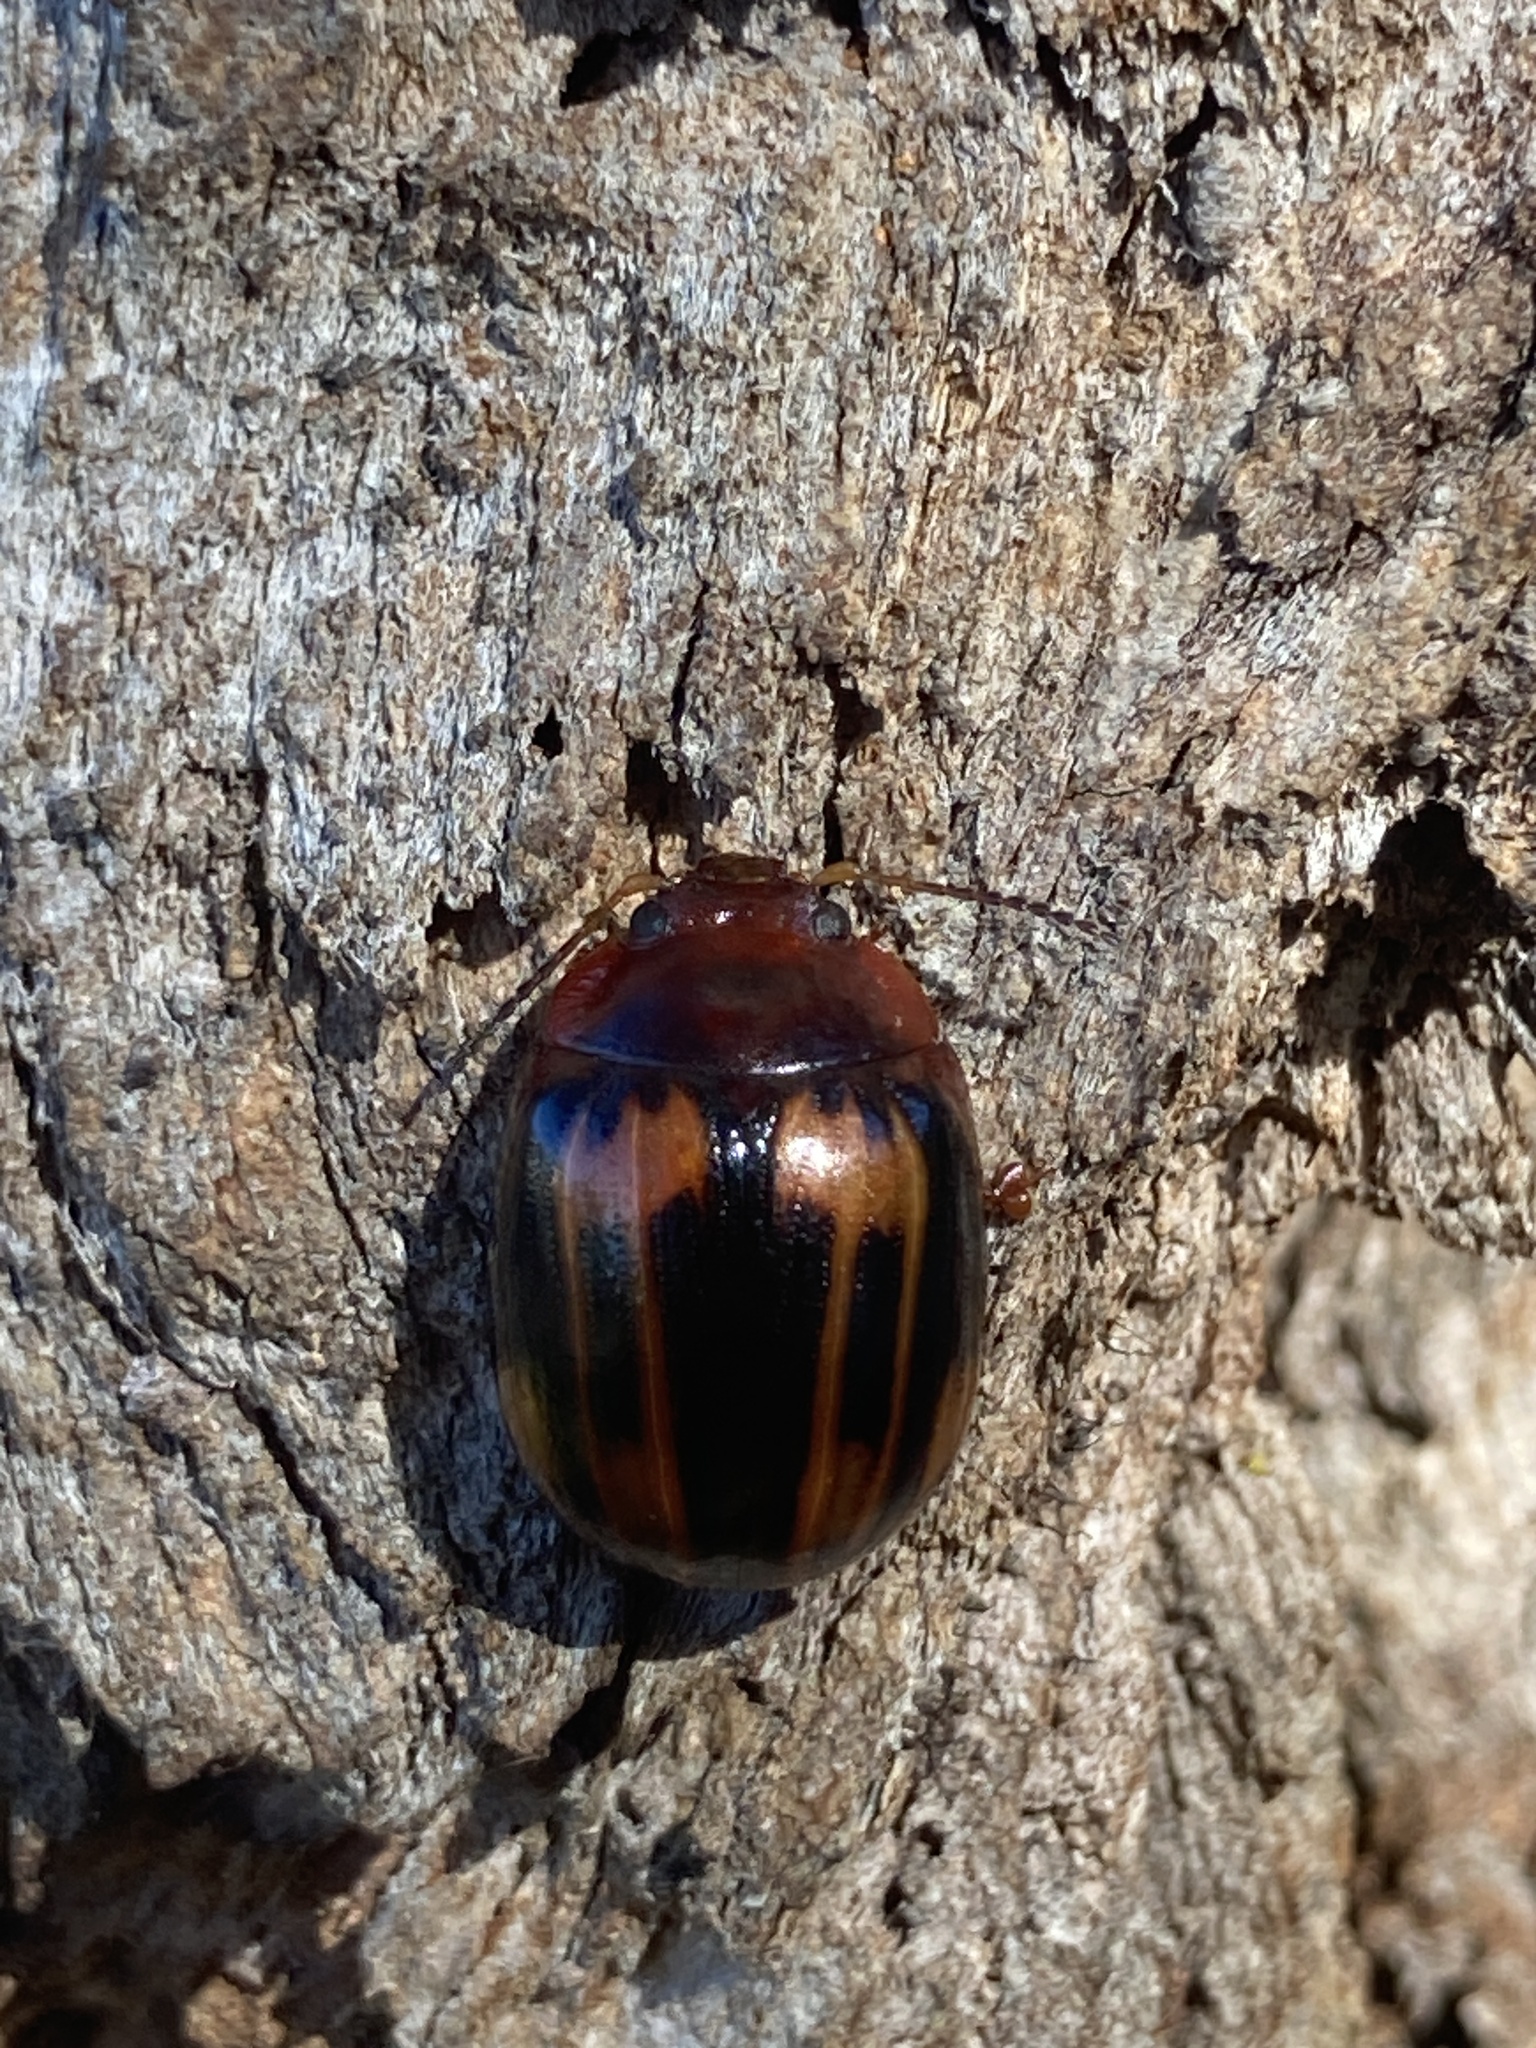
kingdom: Animalia
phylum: Arthropoda
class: Insecta
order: Coleoptera
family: Chrysomelidae
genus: Paropsisterna
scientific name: Paropsisterna
